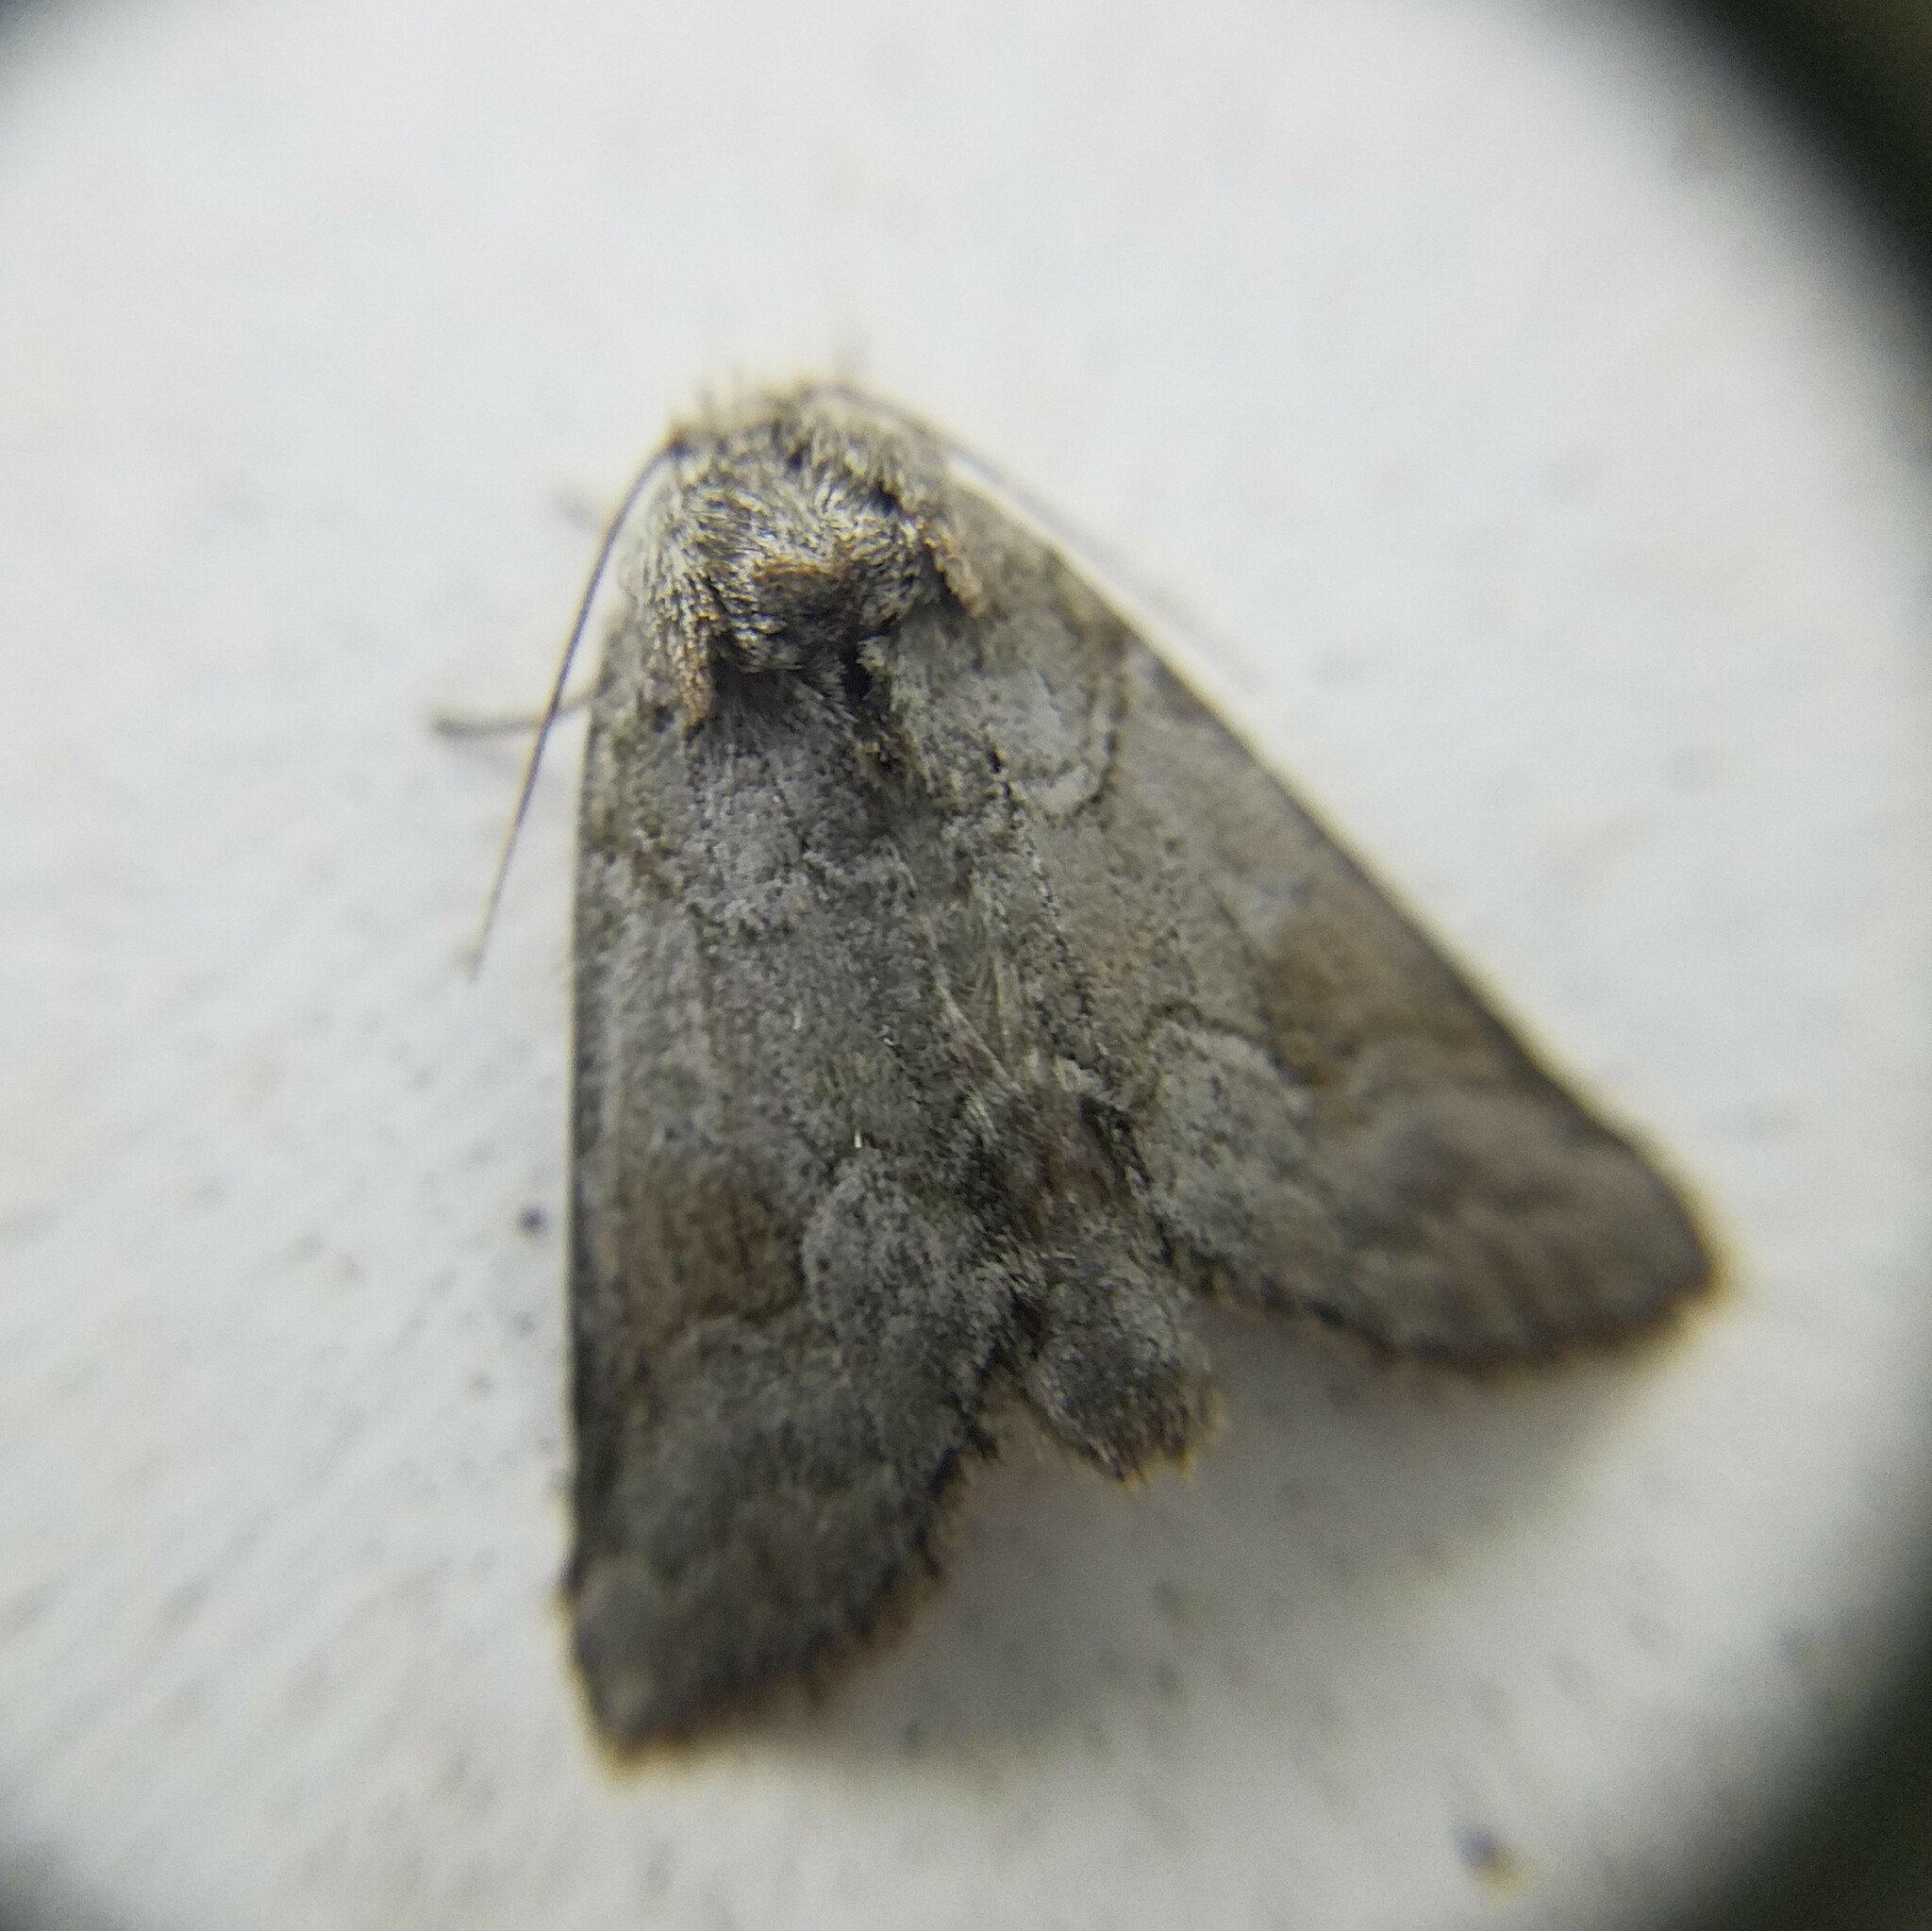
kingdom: Animalia
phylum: Arthropoda
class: Insecta
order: Lepidoptera
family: Notodontidae
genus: Lochmaeus
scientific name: Lochmaeus bilineata
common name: Double-lined prominent
